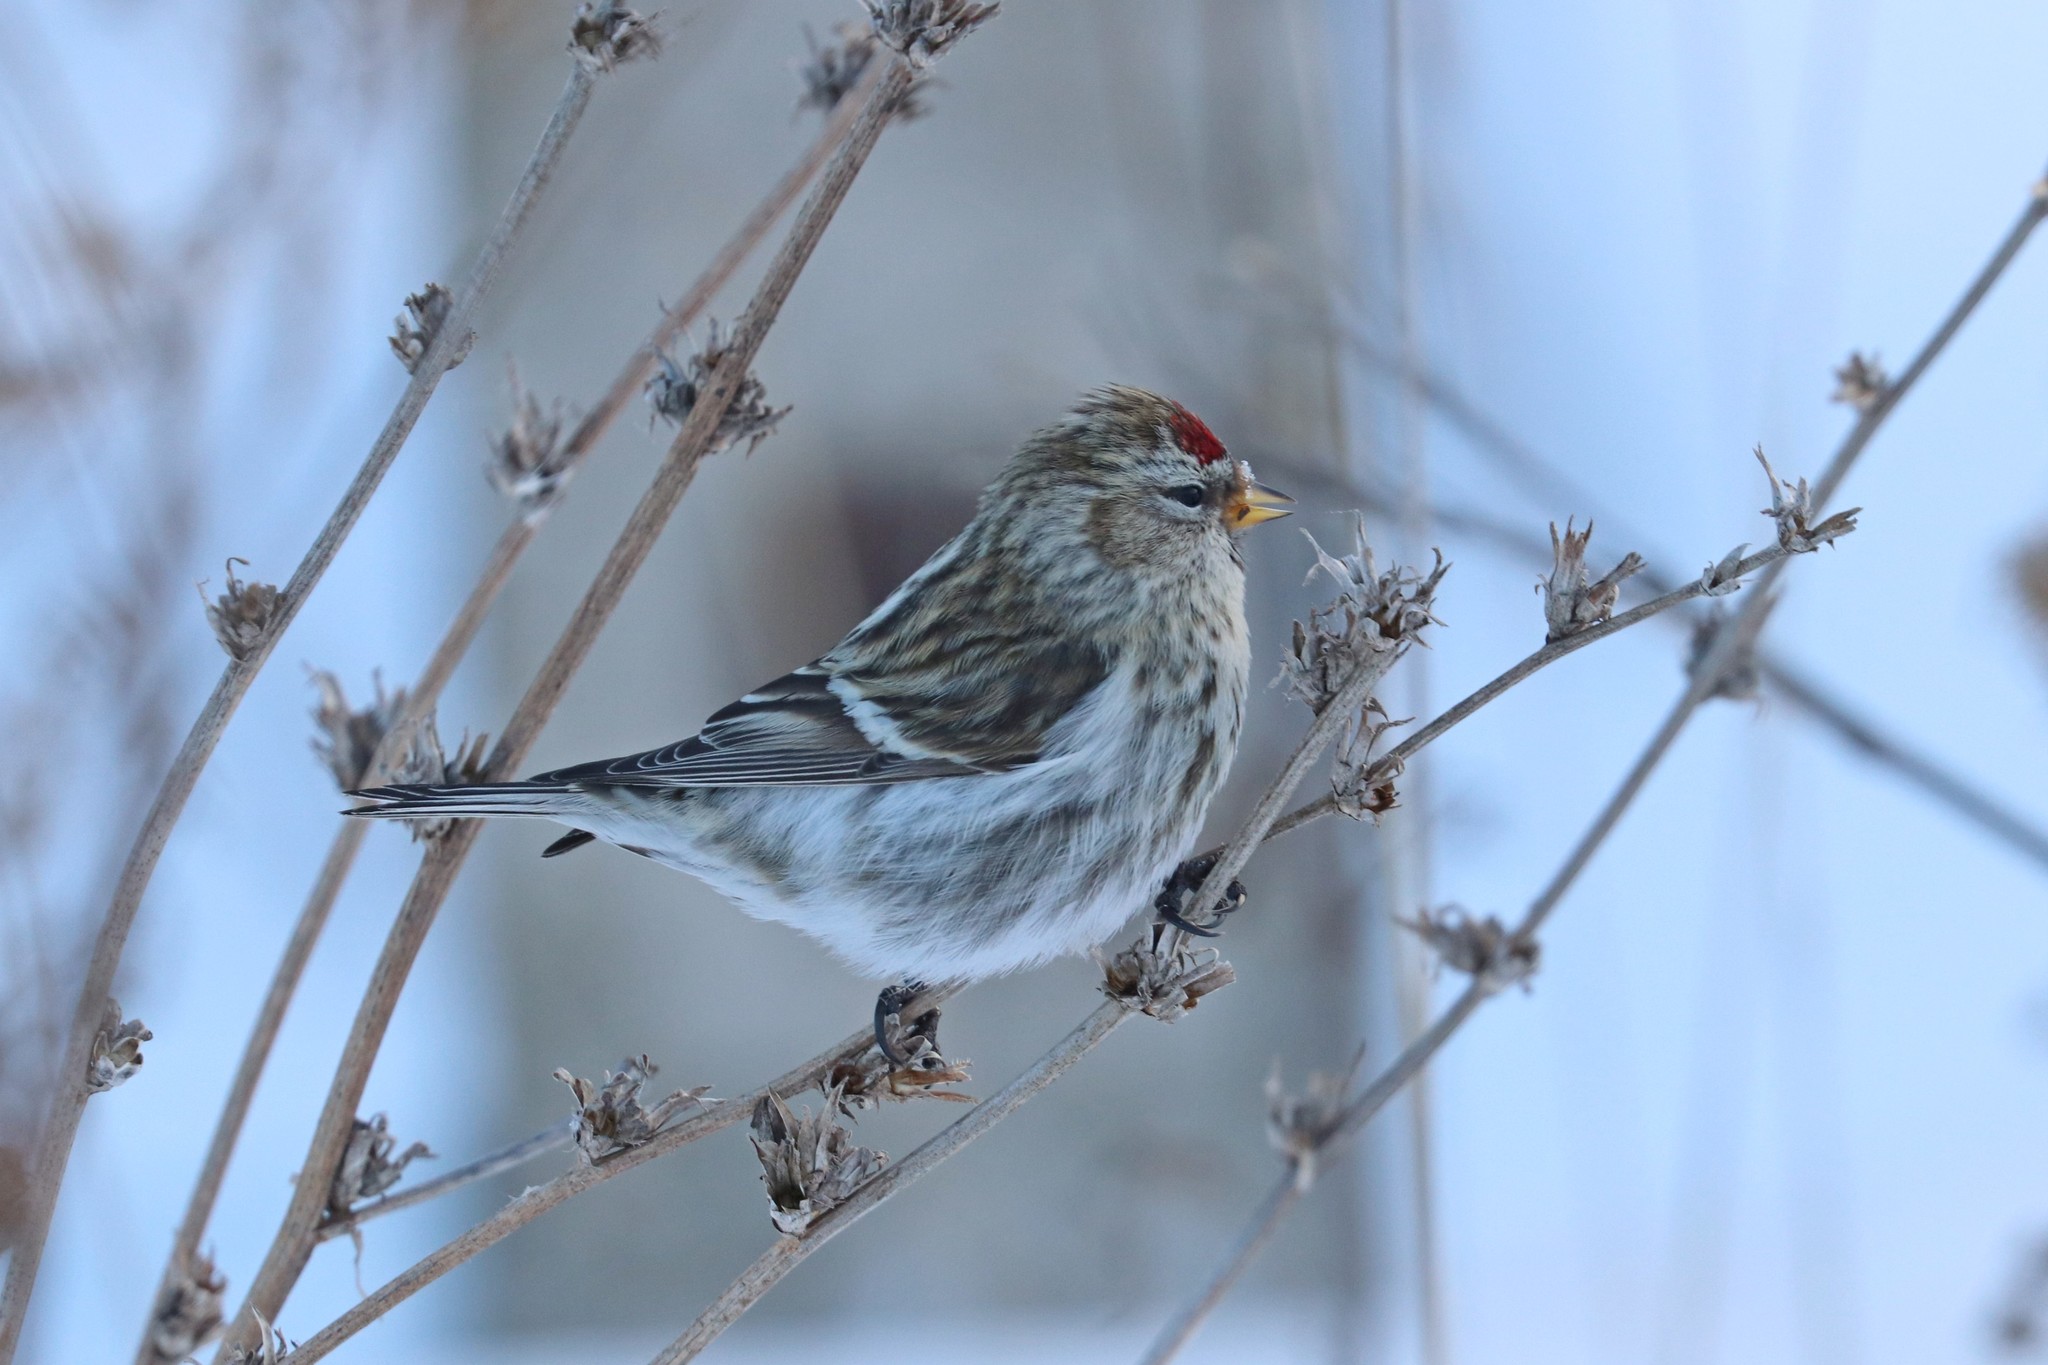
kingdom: Animalia
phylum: Chordata
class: Aves
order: Passeriformes
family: Fringillidae
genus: Acanthis
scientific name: Acanthis flammea
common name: Common redpoll
